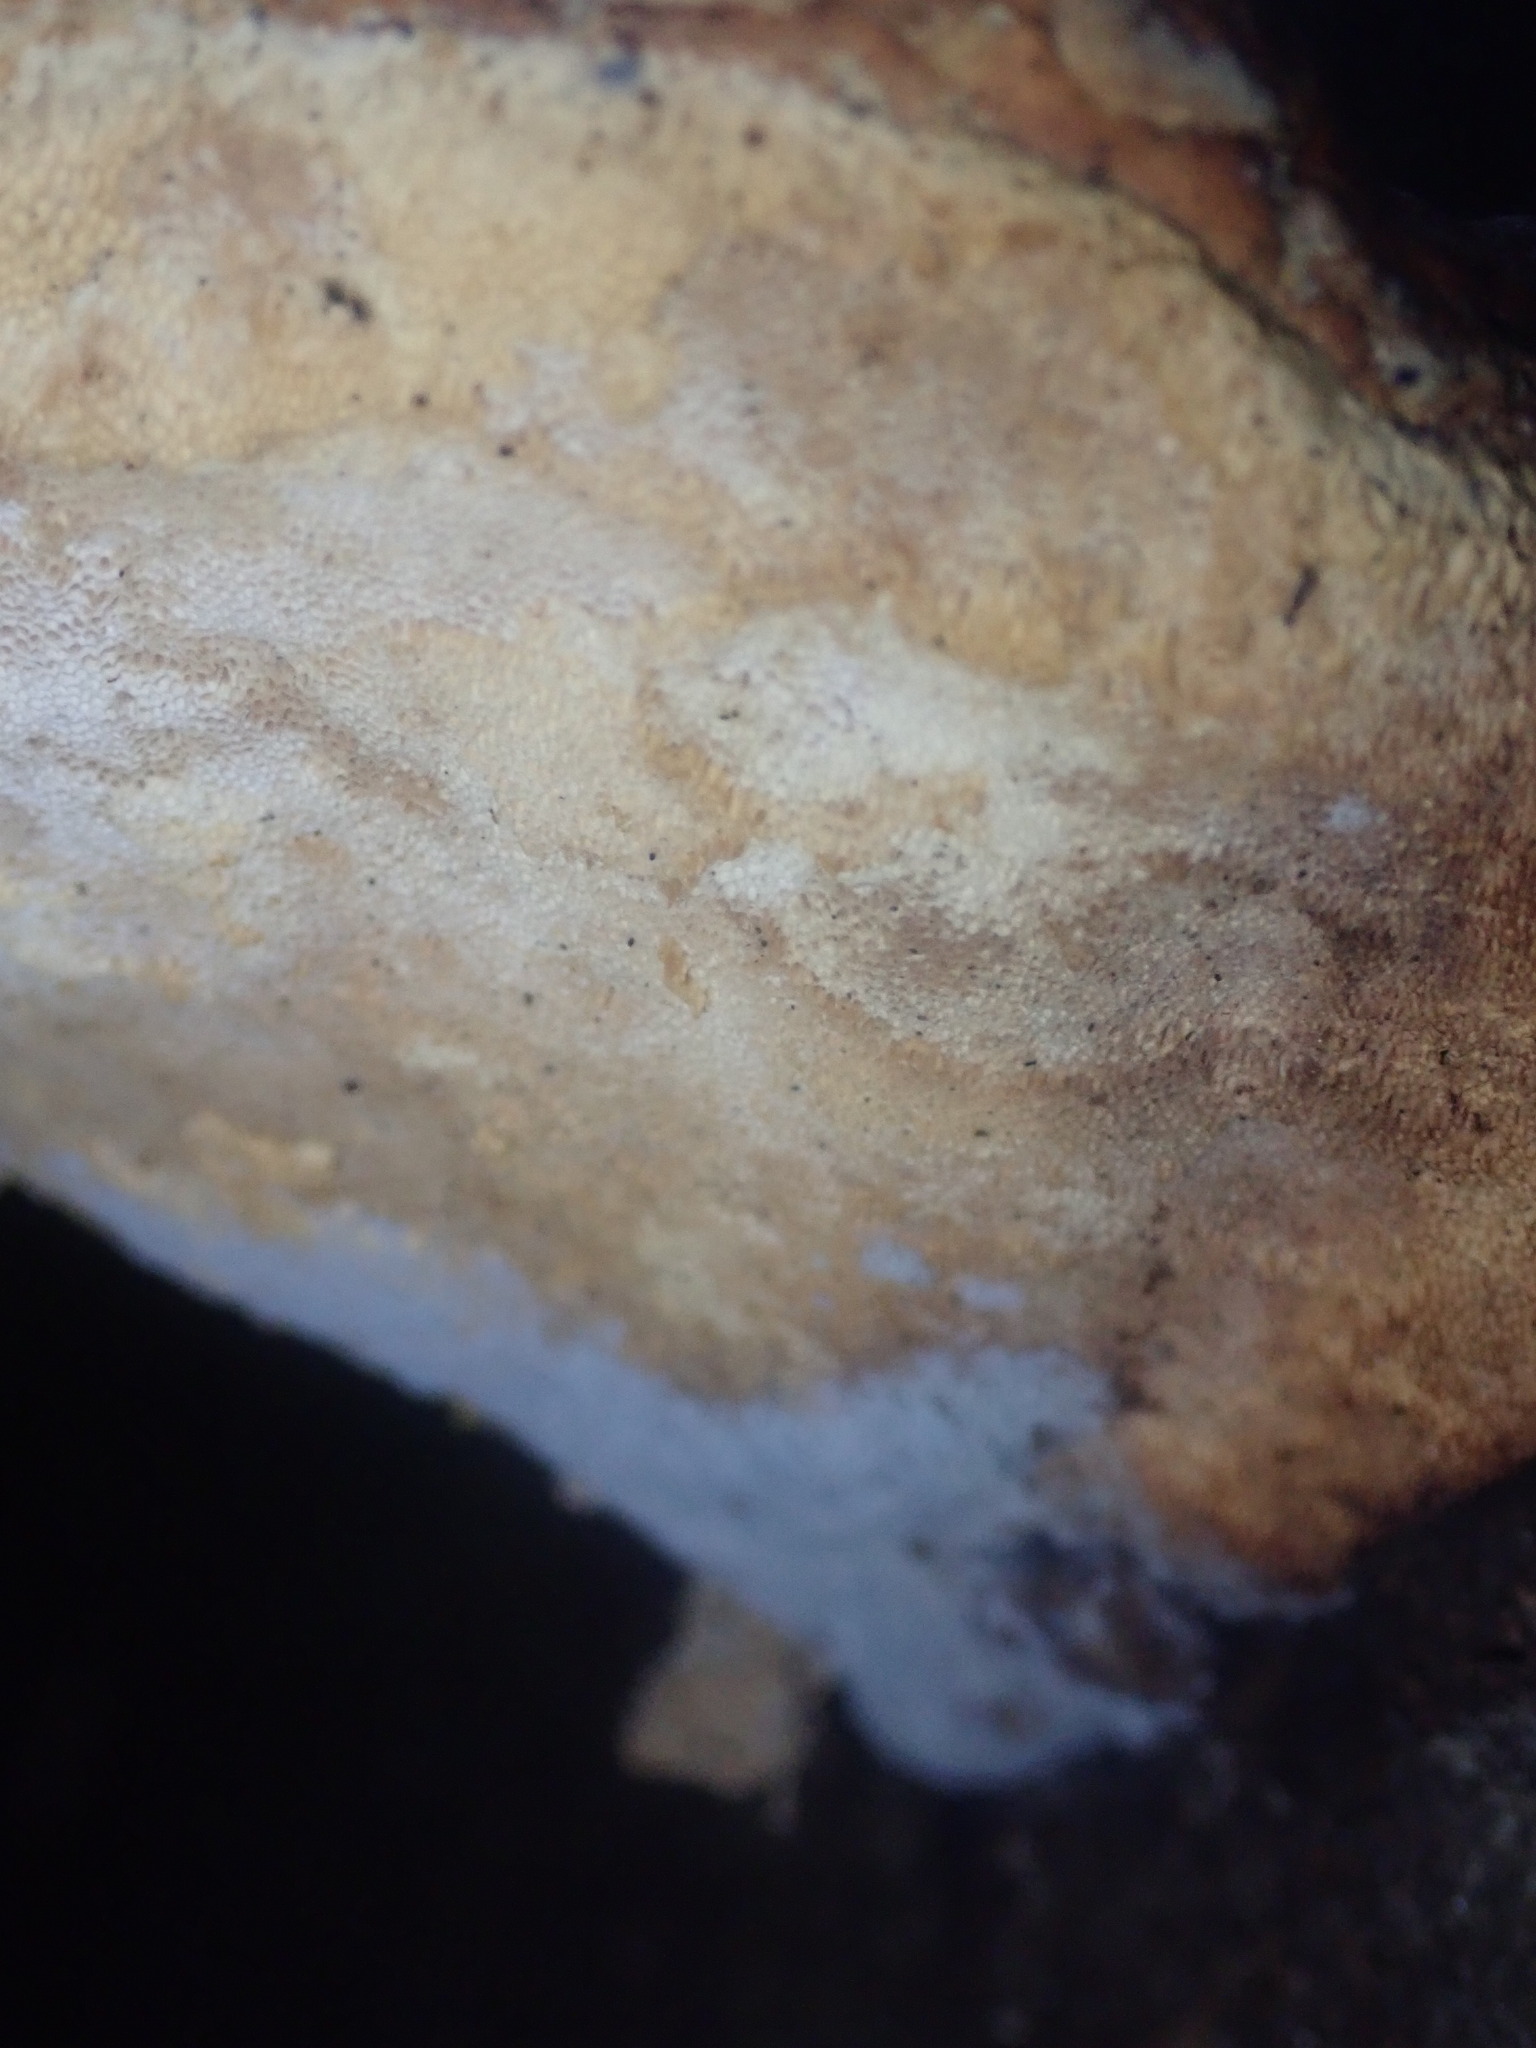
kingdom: Fungi
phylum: Basidiomycota
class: Agaricomycetes
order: Polyporales
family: Fomitopsidaceae
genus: Fomitopsis
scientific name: Fomitopsis pinicola
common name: Red-belted bracket
